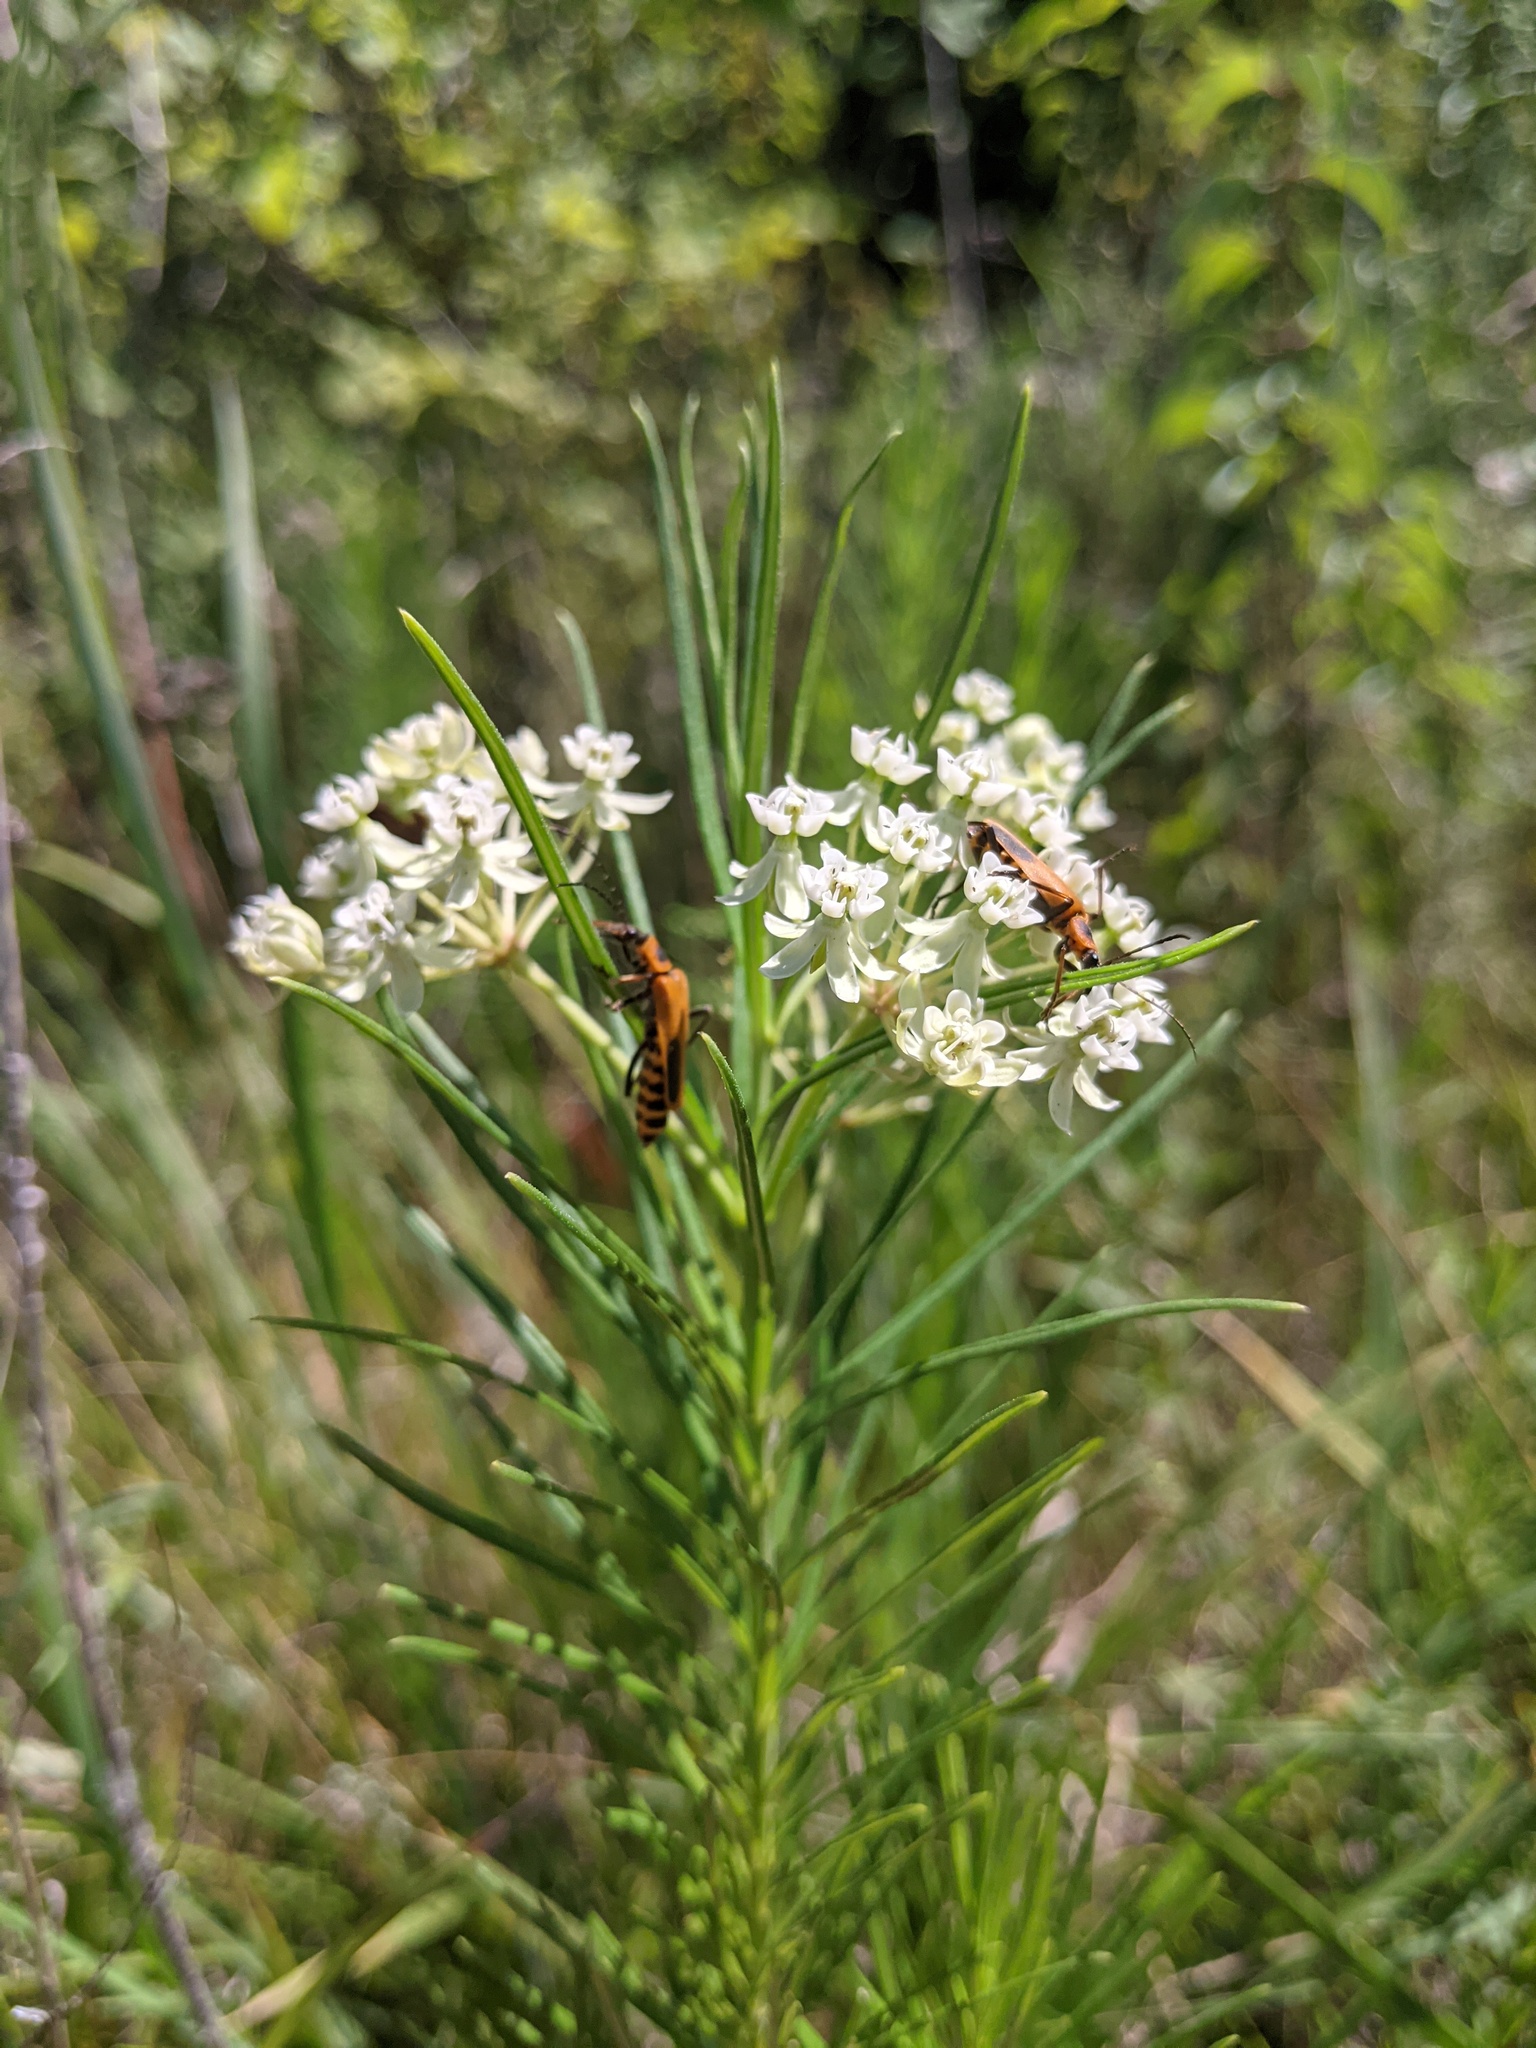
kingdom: Plantae
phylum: Tracheophyta
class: Magnoliopsida
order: Gentianales
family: Apocynaceae
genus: Asclepias
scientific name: Asclepias verticillata
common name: Eastern whorled milkweed
